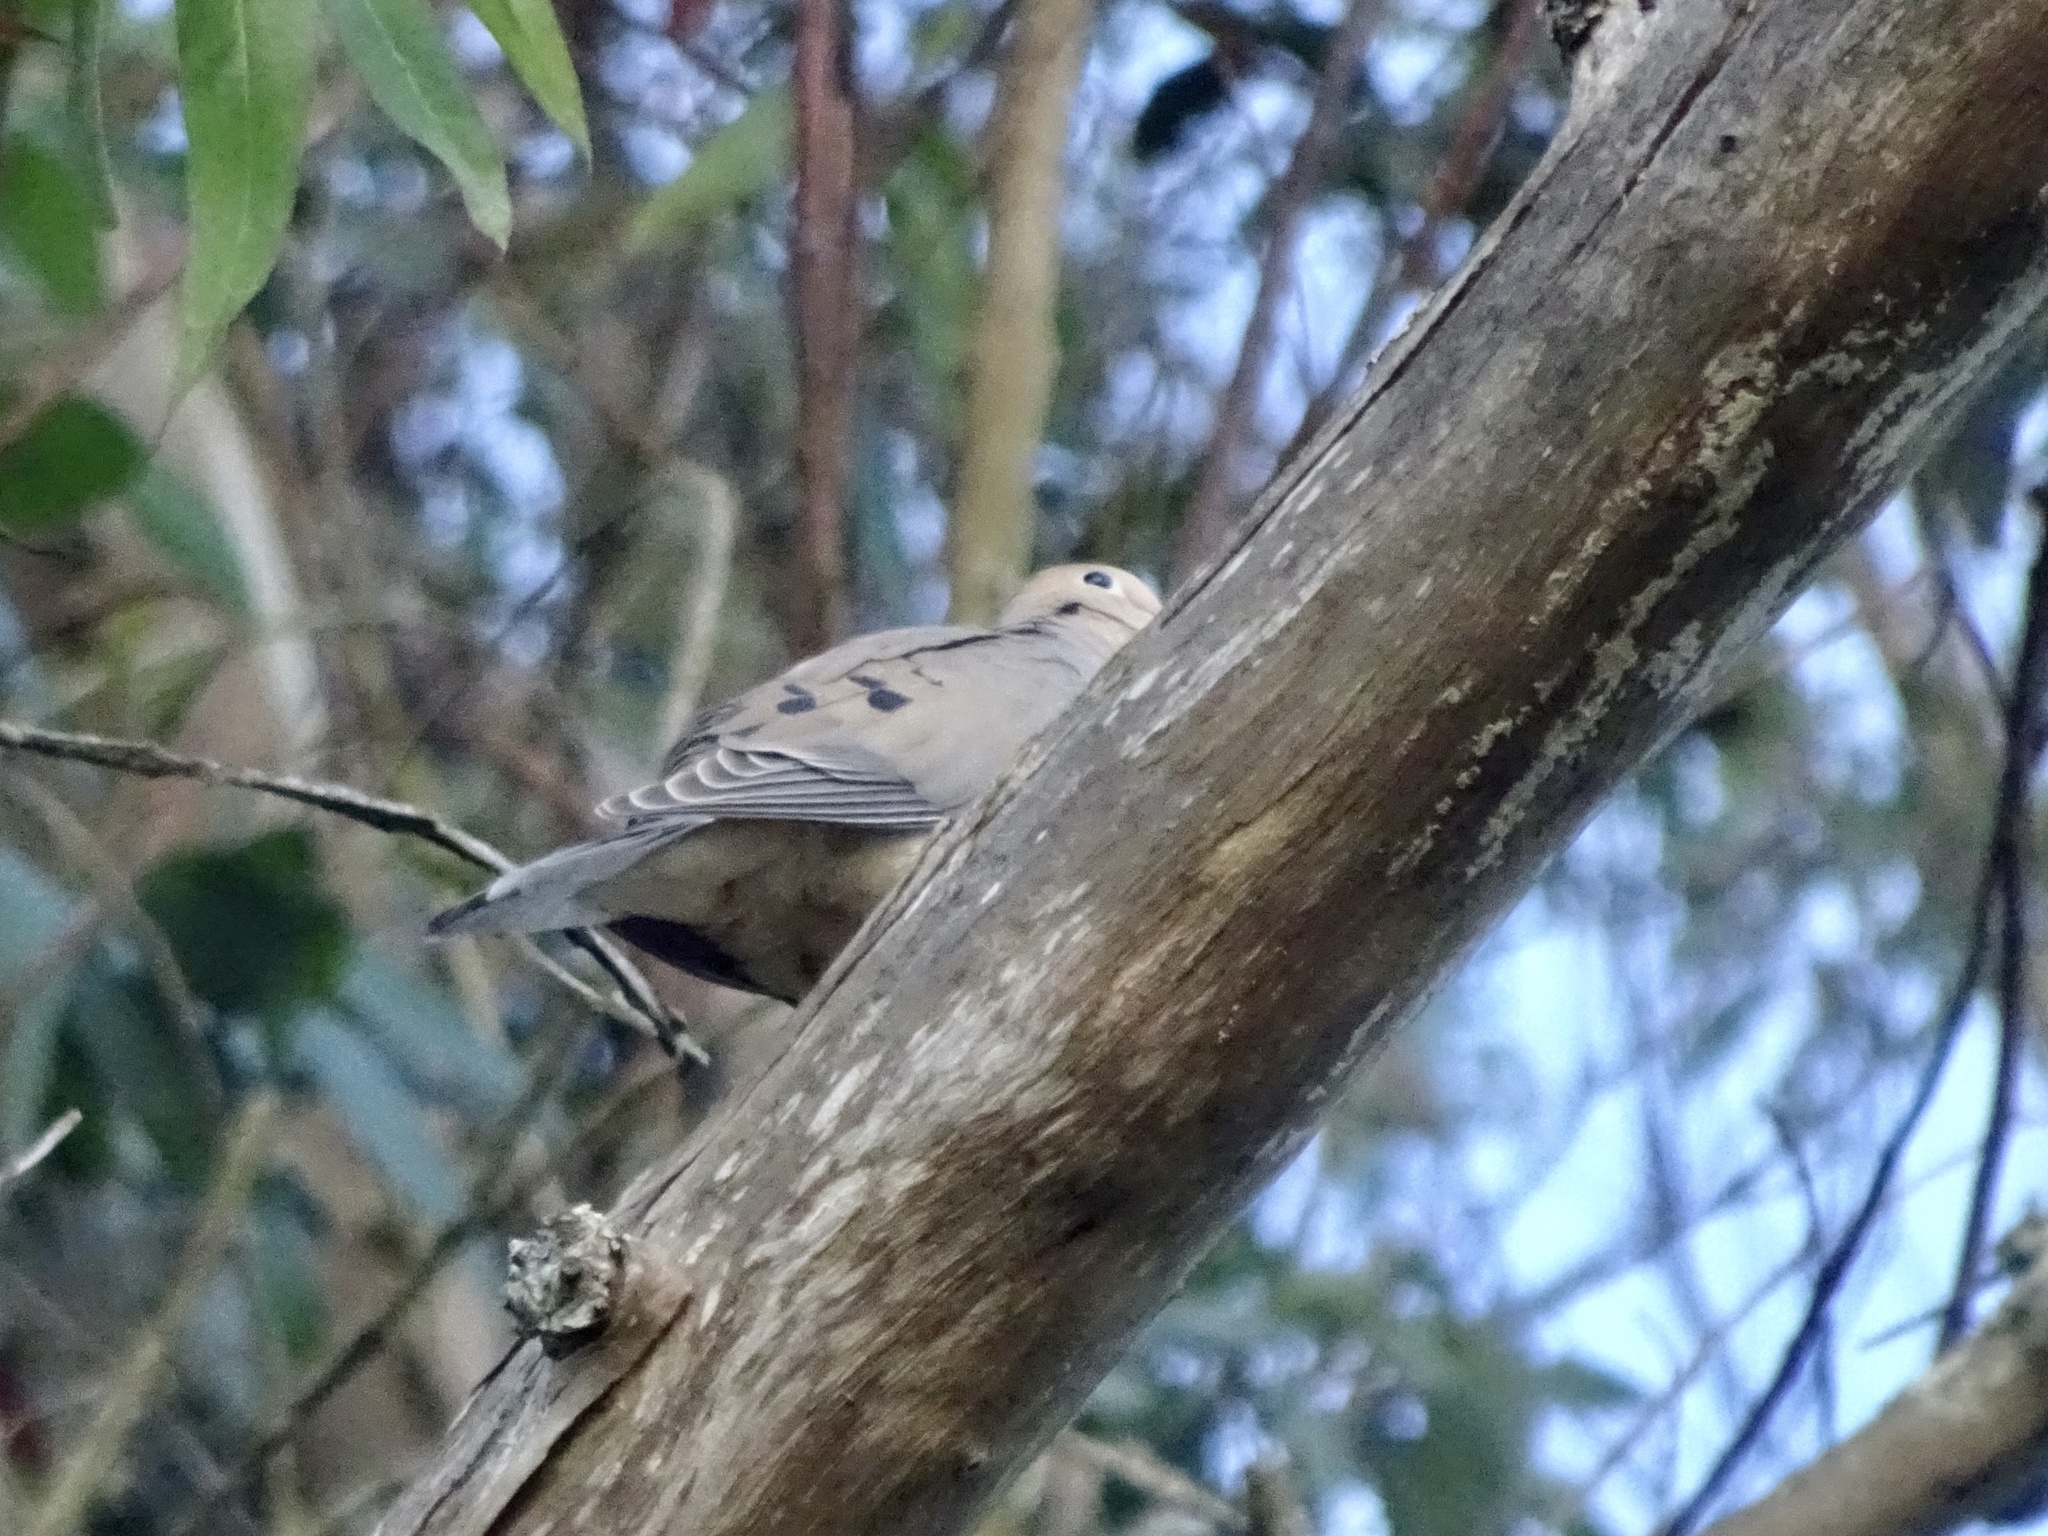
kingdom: Animalia
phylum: Chordata
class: Aves
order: Columbiformes
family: Columbidae
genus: Zenaida
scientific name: Zenaida macroura
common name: Mourning dove
